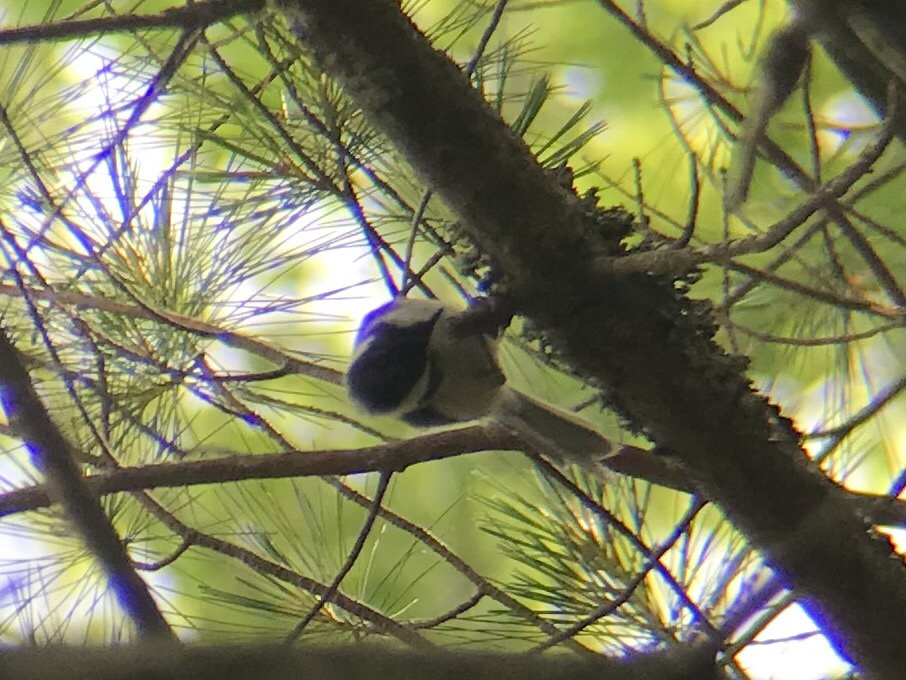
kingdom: Animalia
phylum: Chordata
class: Aves
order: Passeriformes
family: Paridae
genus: Poecile
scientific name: Poecile atricapillus
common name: Black-capped chickadee
